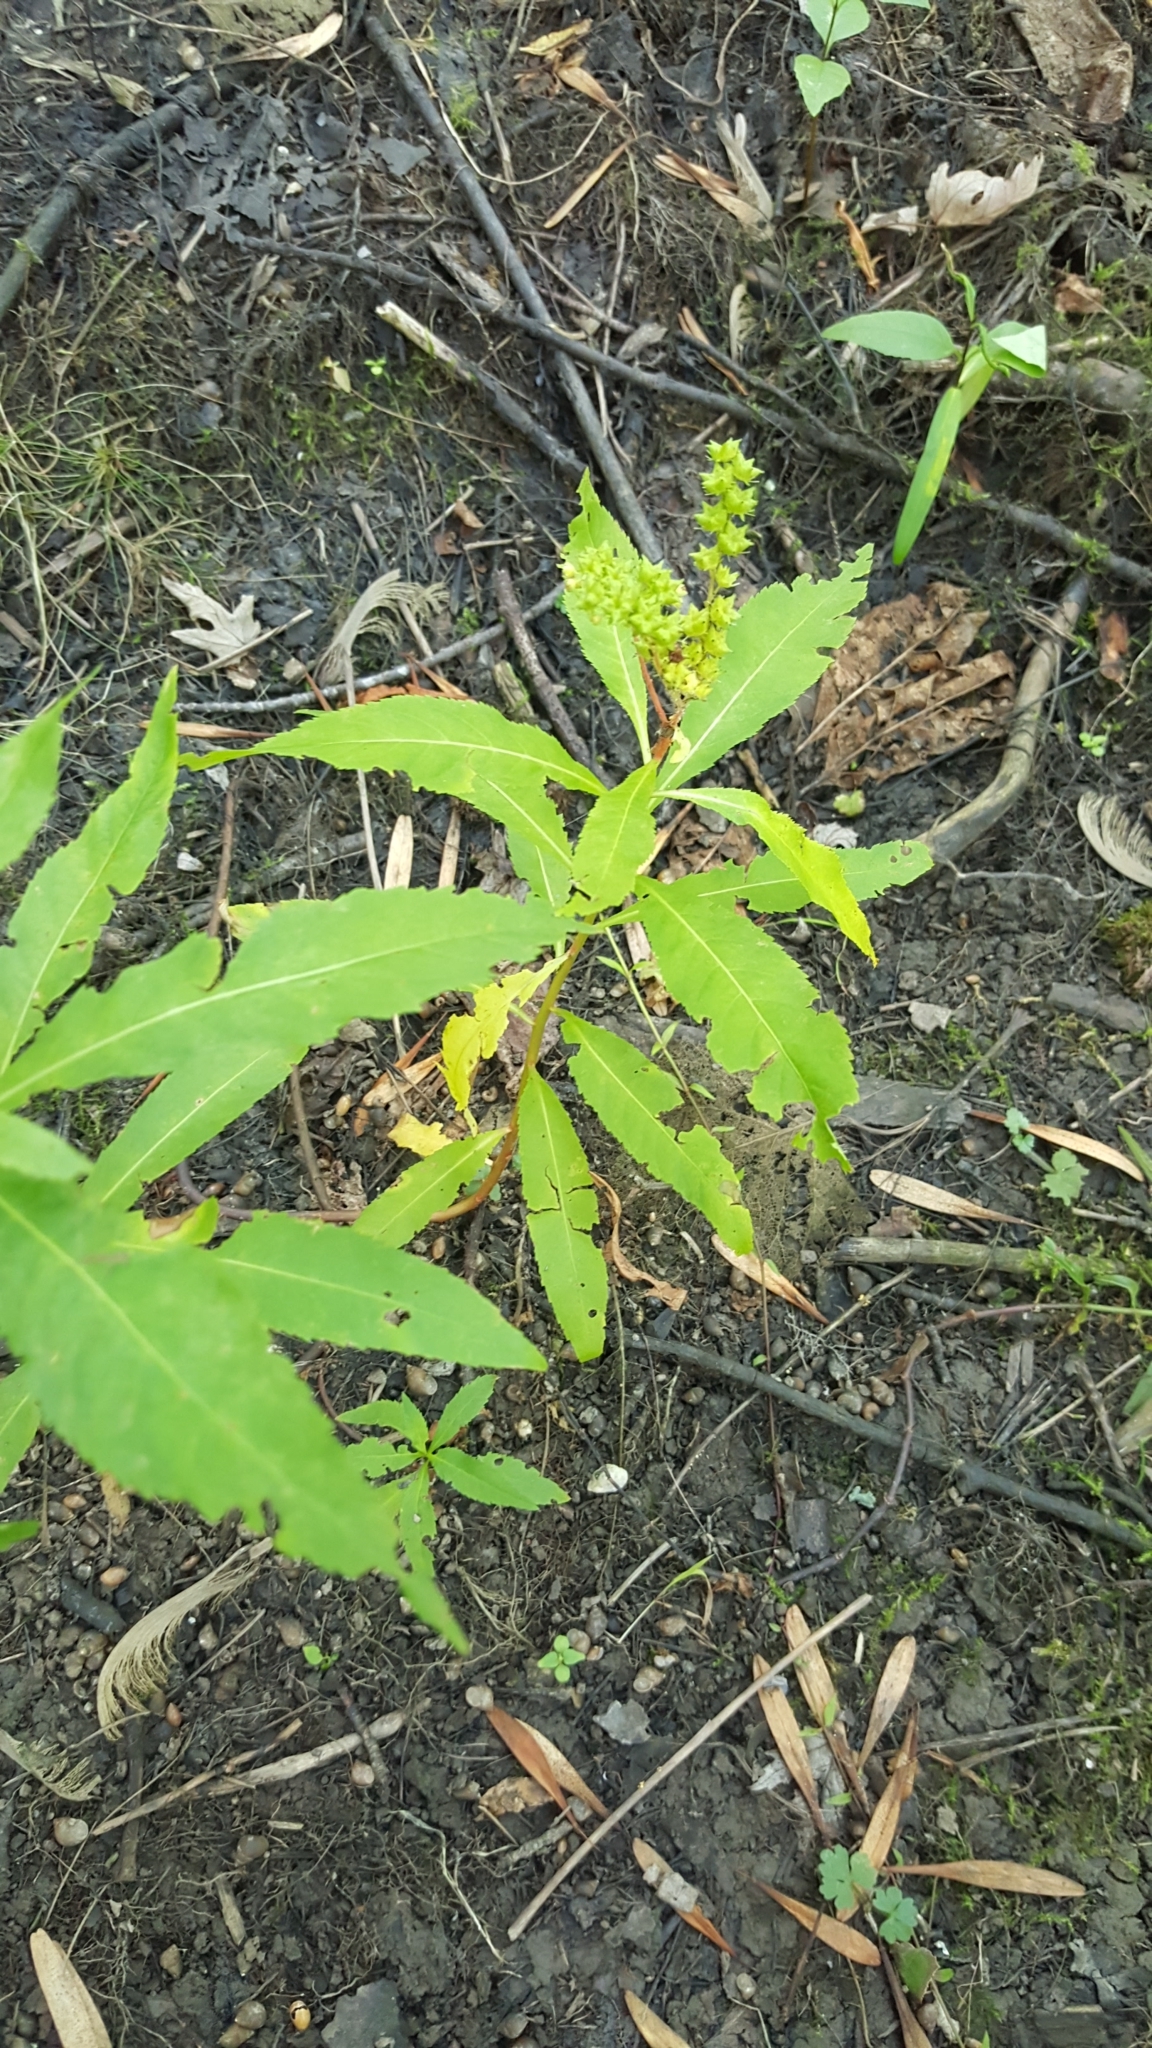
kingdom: Plantae
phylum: Tracheophyta
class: Magnoliopsida
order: Saxifragales
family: Penthoraceae
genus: Penthorum
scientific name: Penthorum sedoides
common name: Ditch stonecrop
